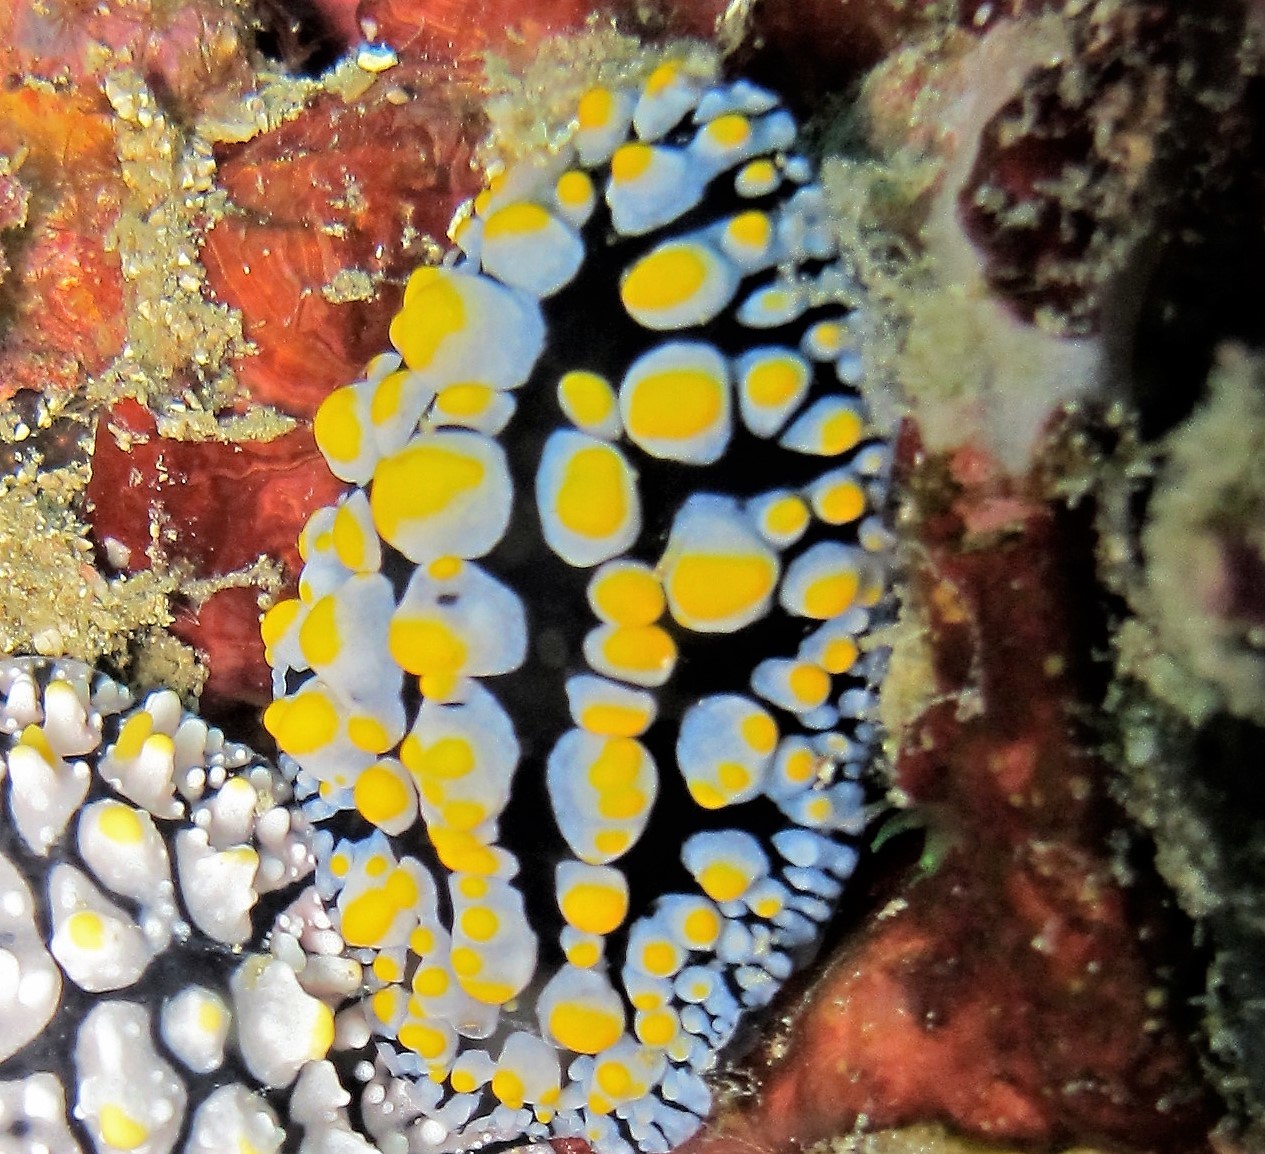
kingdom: Animalia
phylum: Mollusca
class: Gastropoda
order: Nudibranchia
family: Phyllidiidae
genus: Phyllidia
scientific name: Phyllidia varicosa
